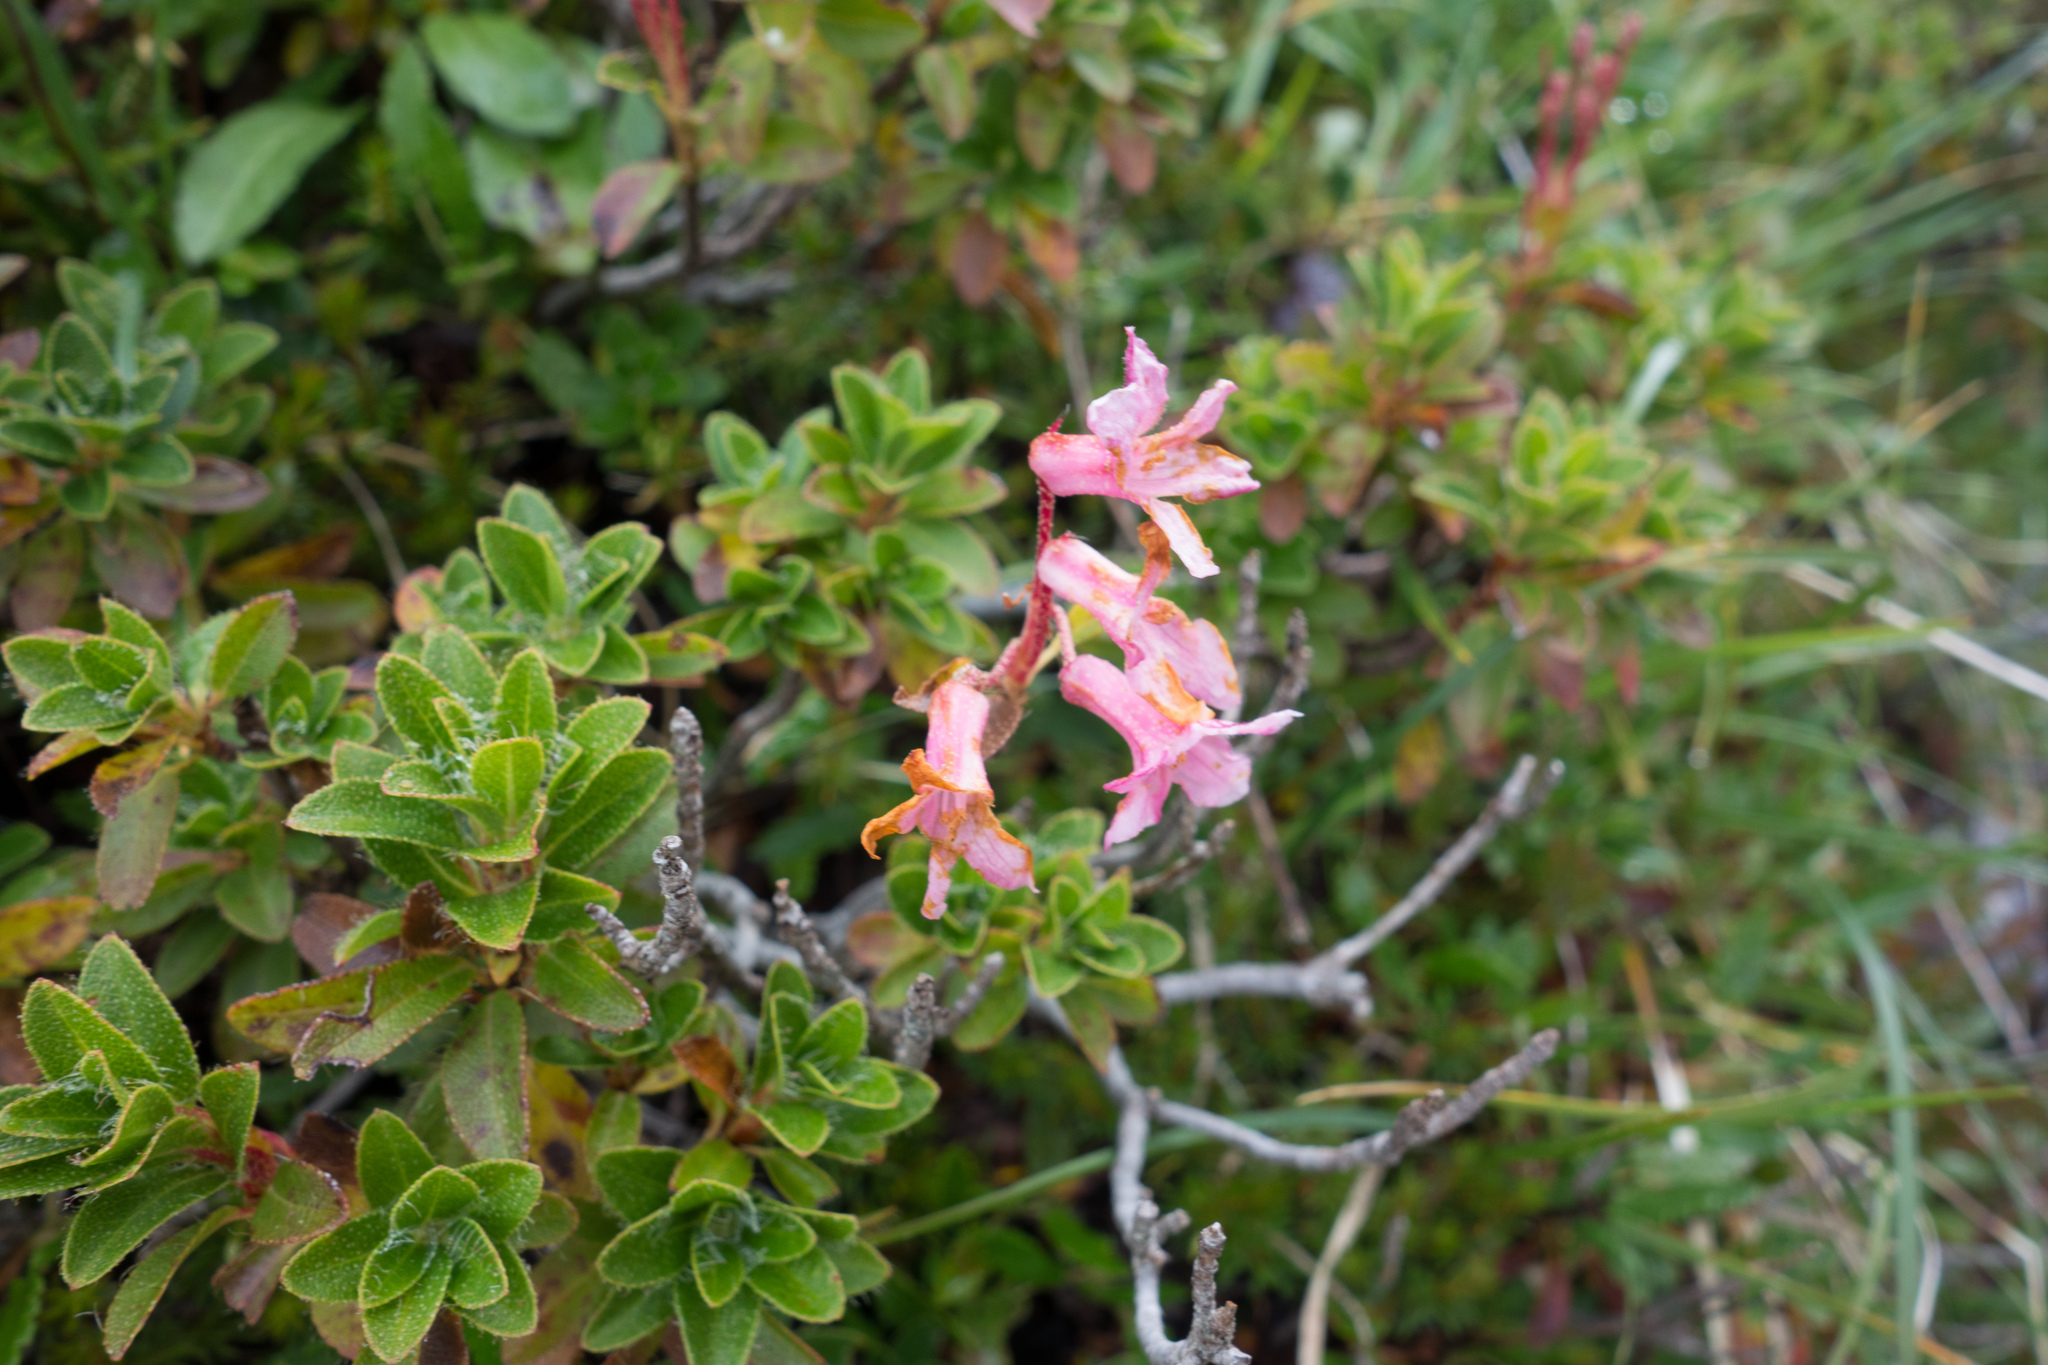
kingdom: Plantae
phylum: Tracheophyta
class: Magnoliopsida
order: Ericales
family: Ericaceae
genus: Rhododendron
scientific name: Rhododendron hirsutum
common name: Hairy alpenrose
